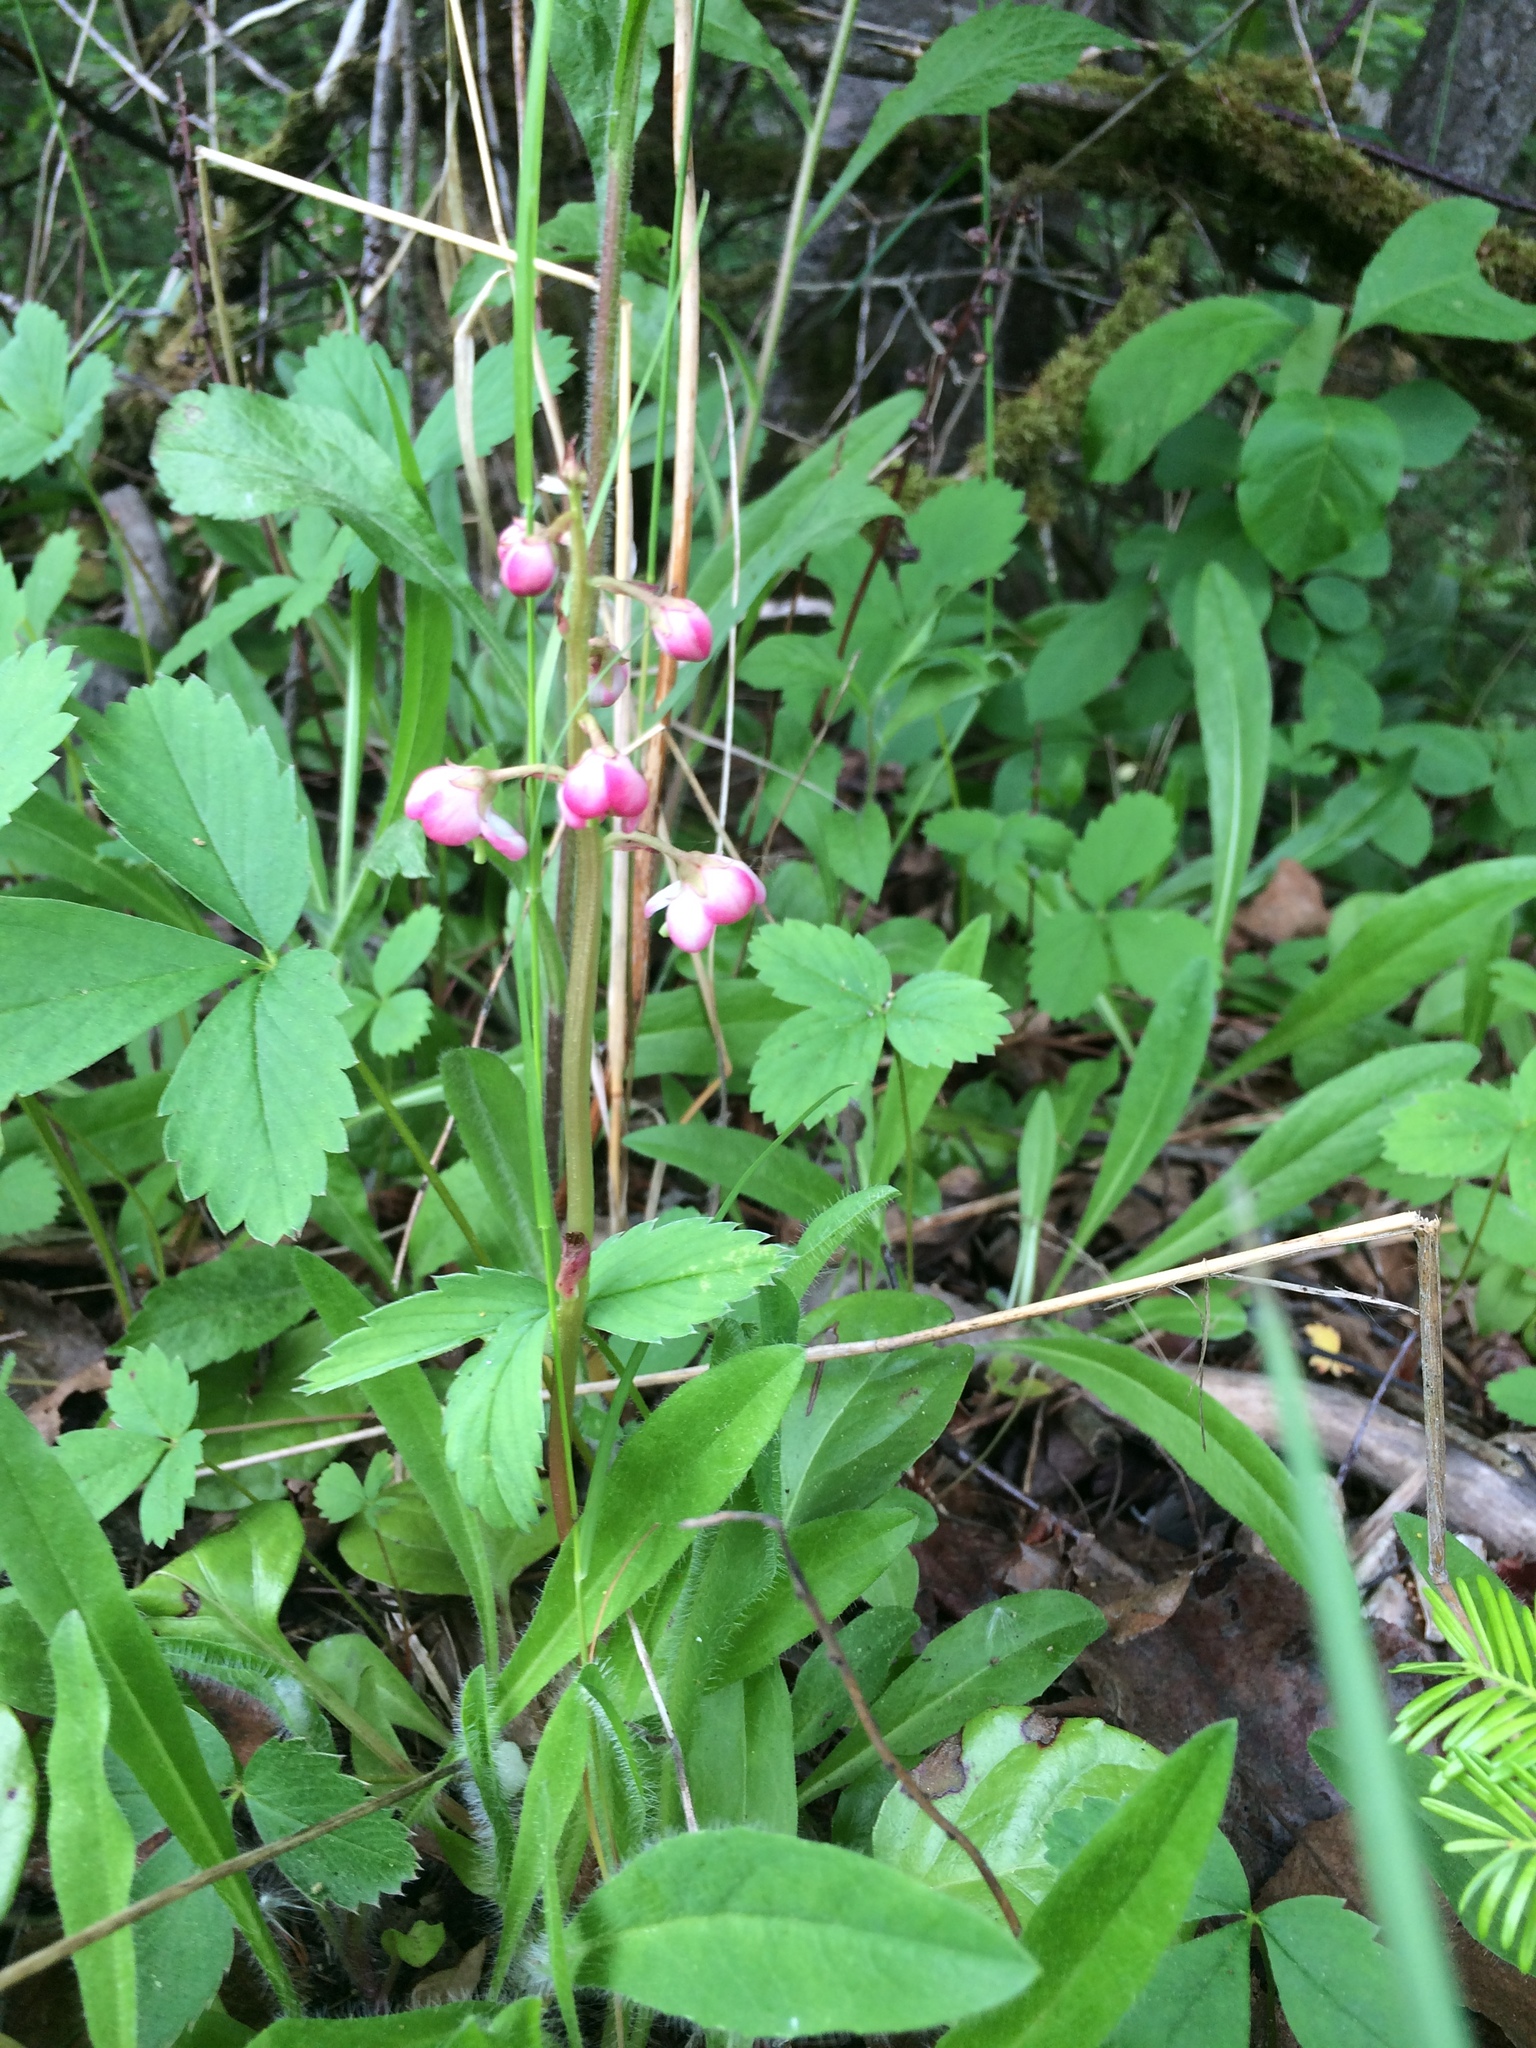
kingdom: Plantae
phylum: Tracheophyta
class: Magnoliopsida
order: Ericales
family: Ericaceae
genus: Pyrola
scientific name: Pyrola asarifolia
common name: Bog wintergreen
